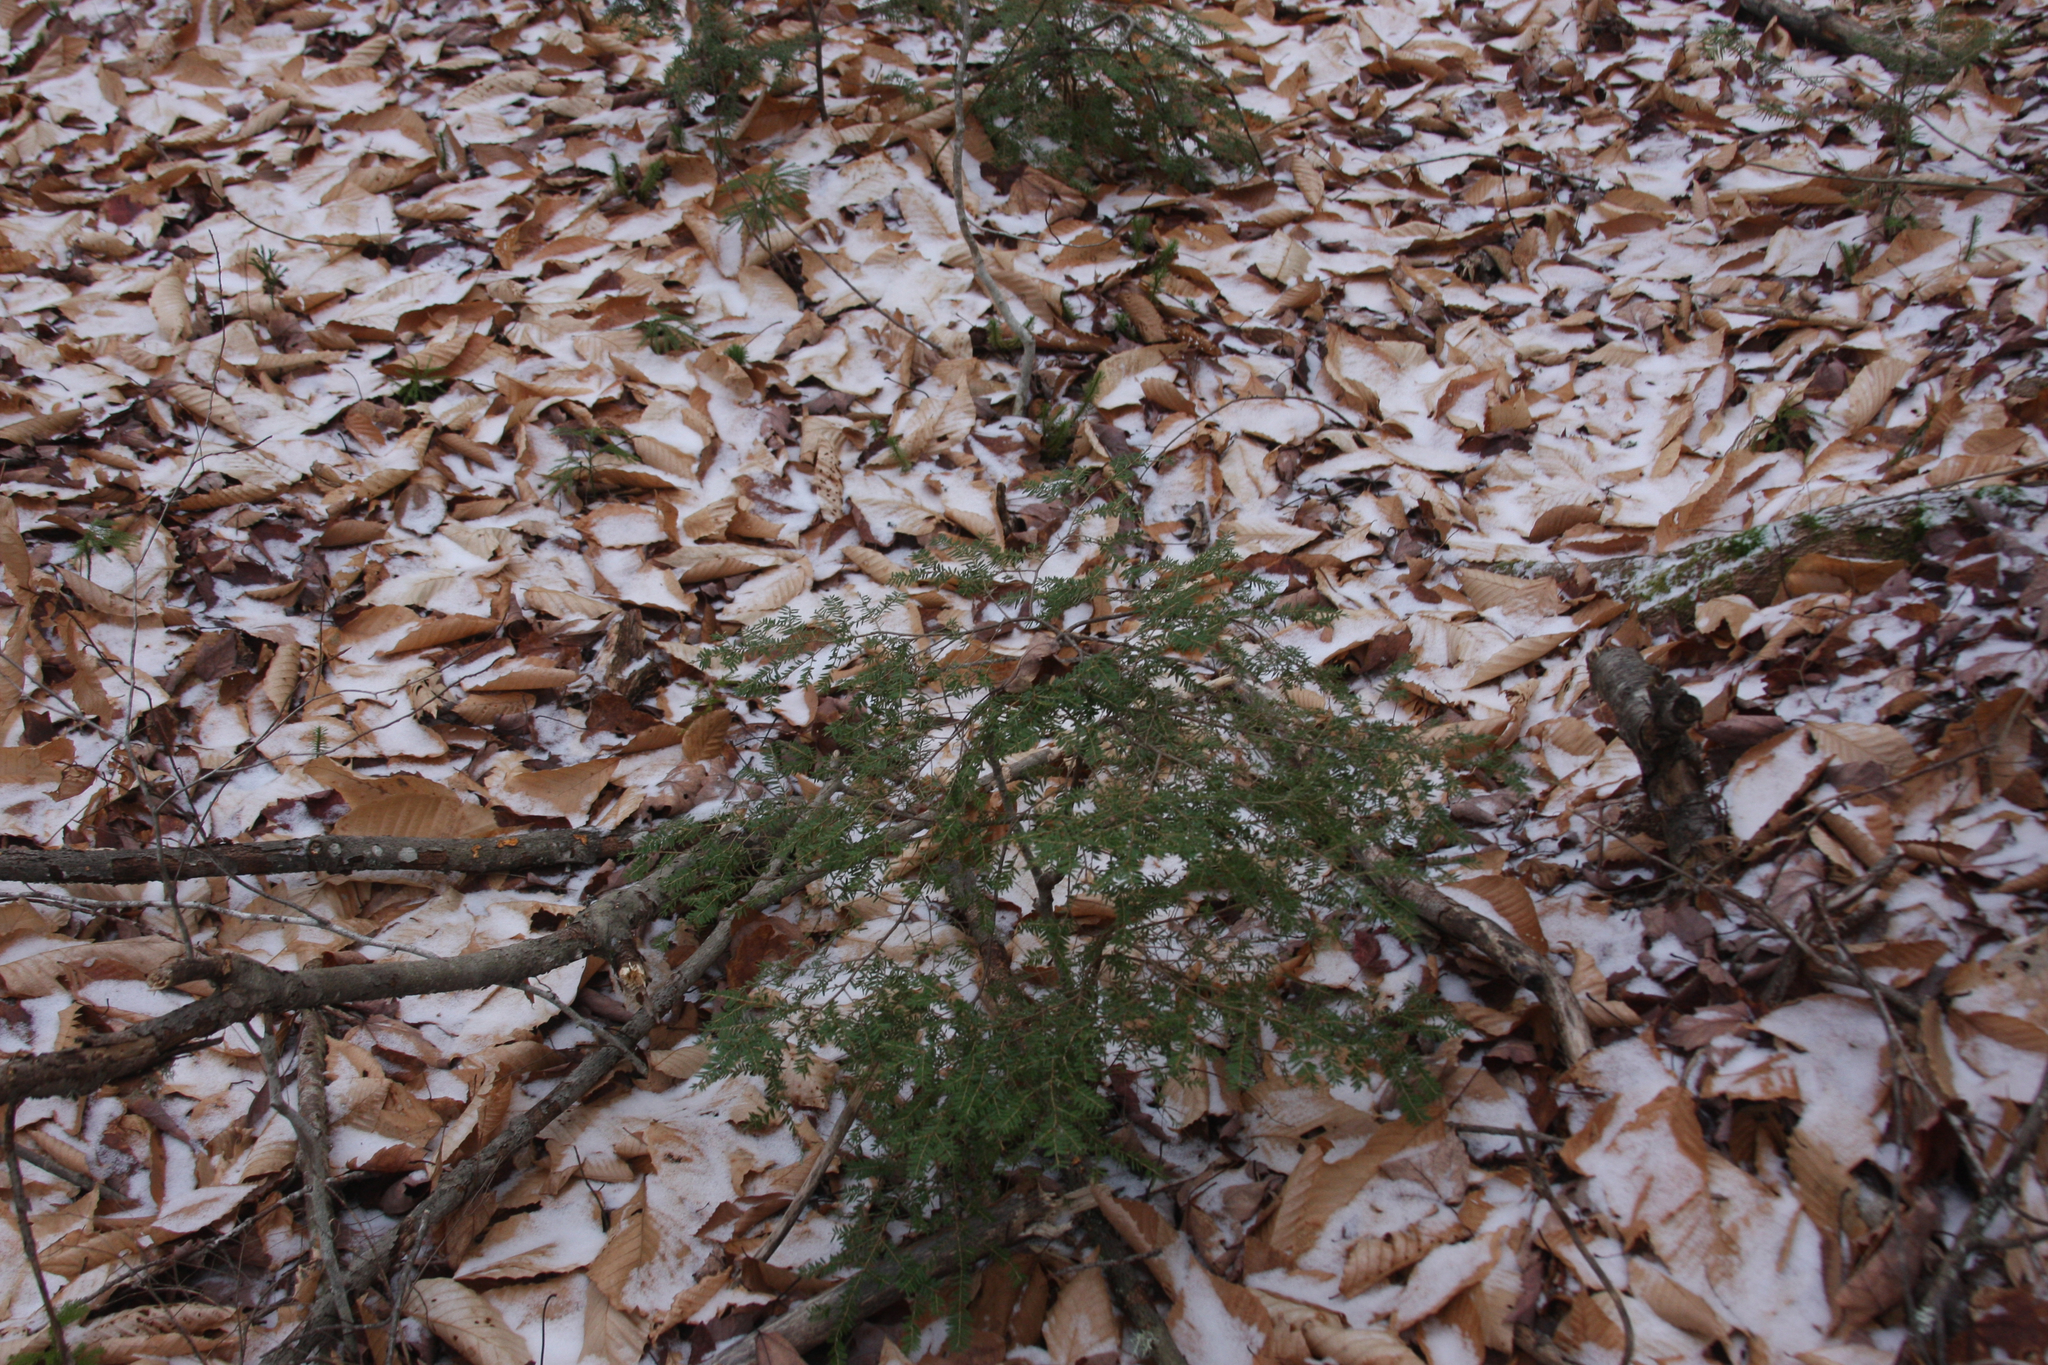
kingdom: Plantae
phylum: Tracheophyta
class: Pinopsida
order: Pinales
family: Pinaceae
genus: Tsuga
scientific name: Tsuga canadensis
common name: Eastern hemlock
